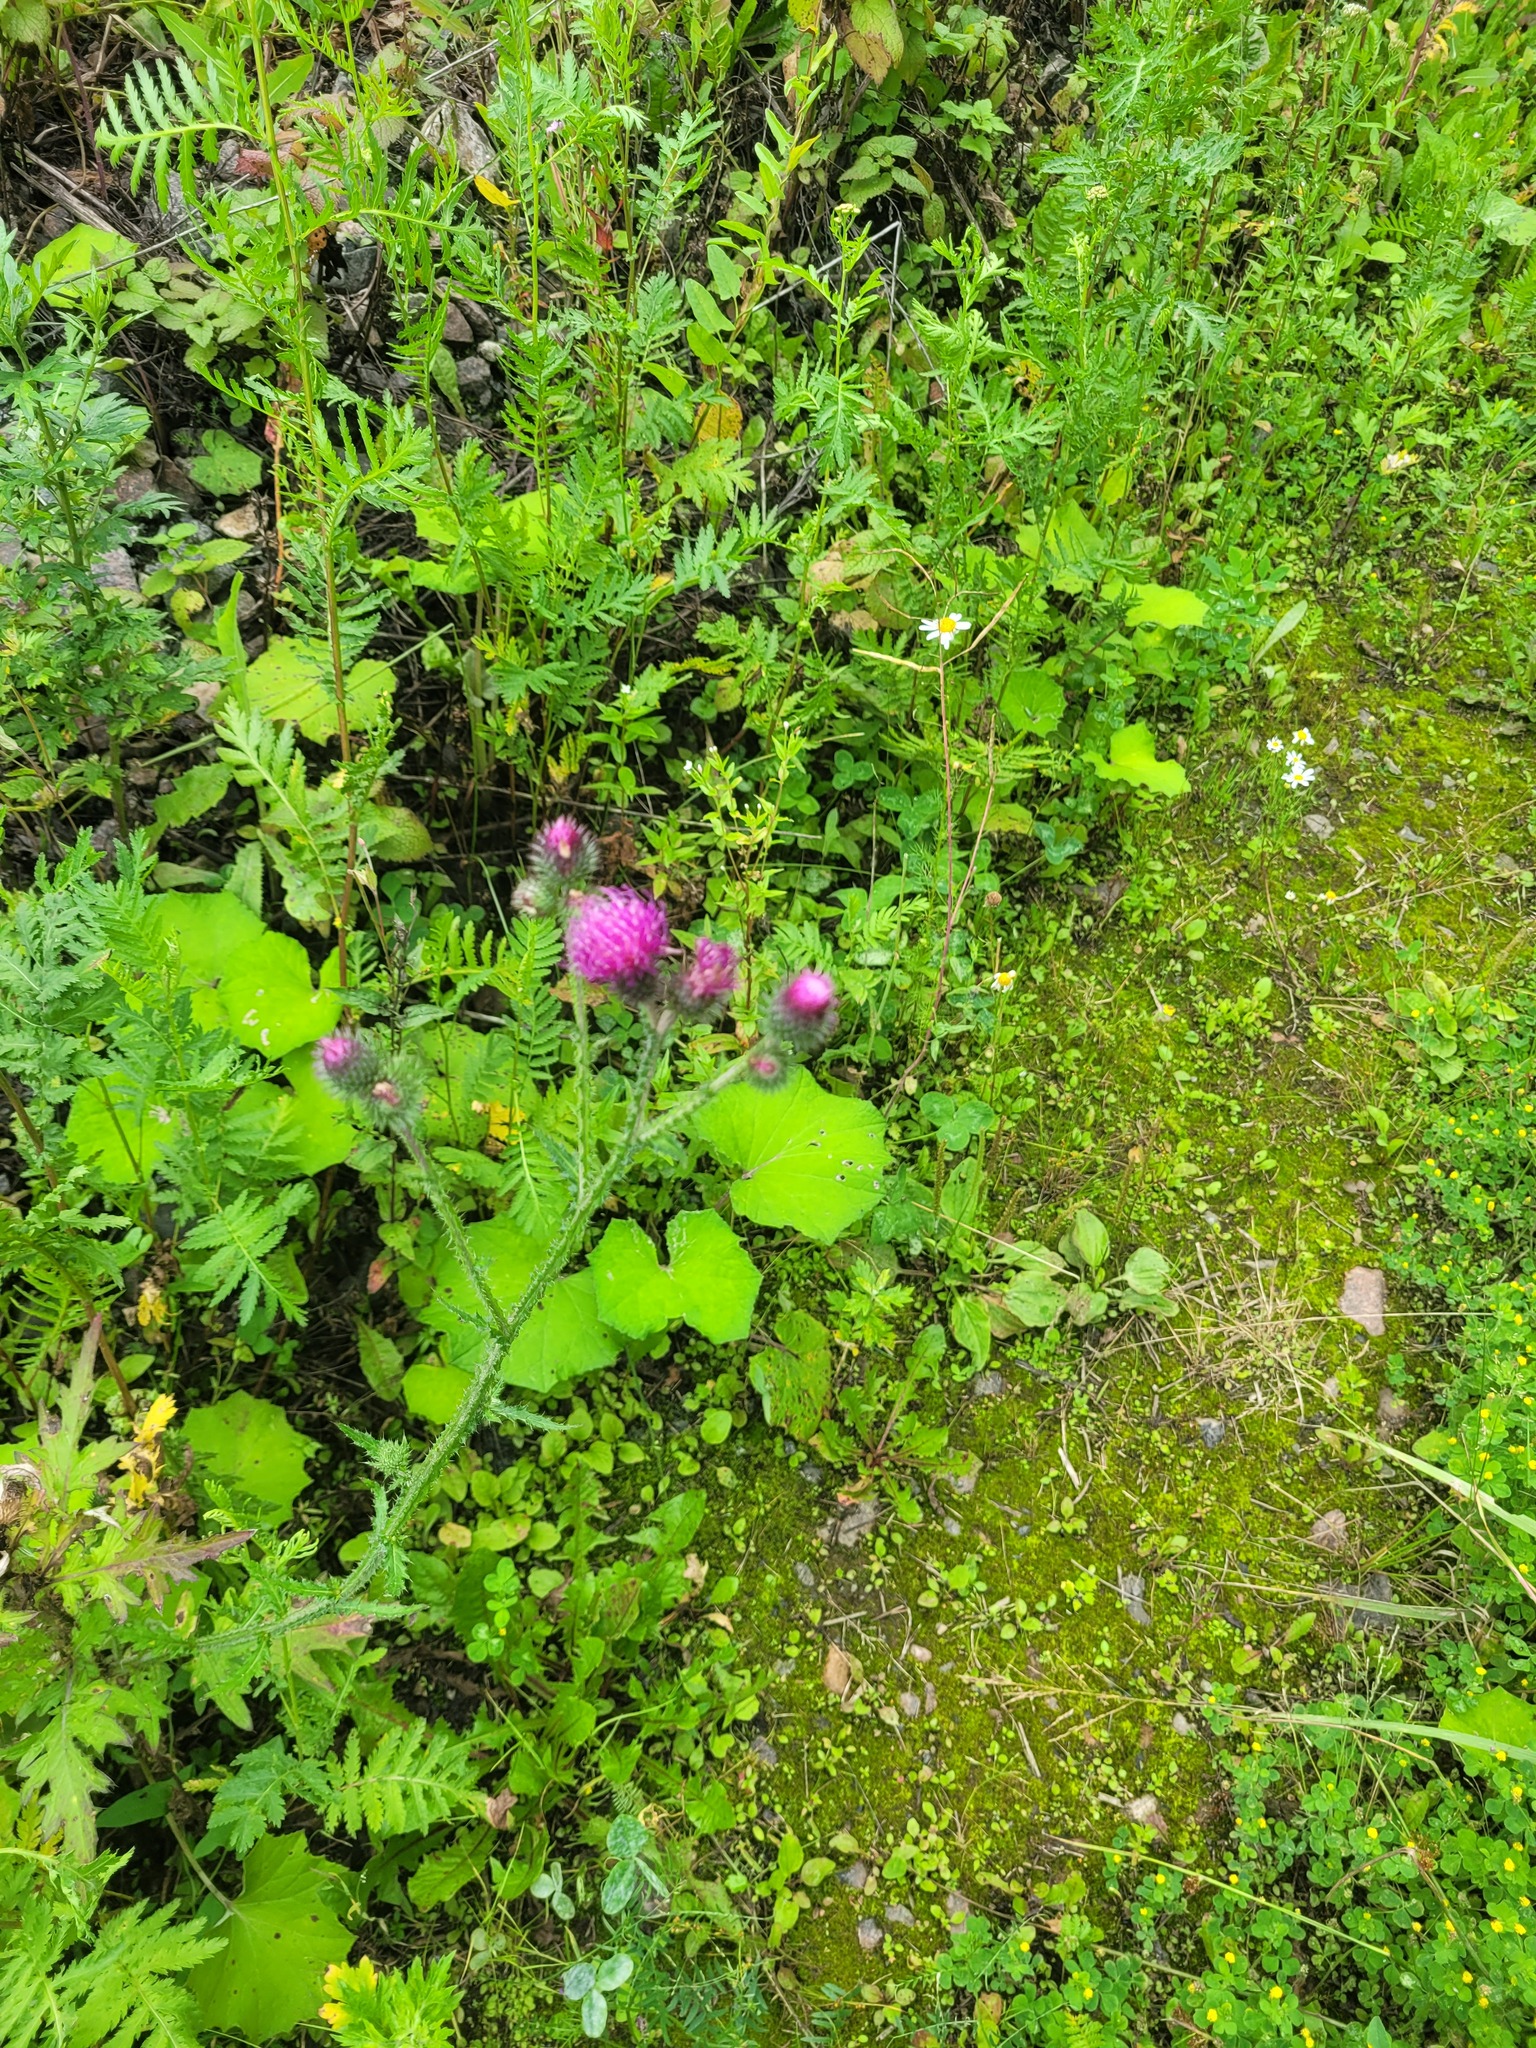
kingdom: Plantae
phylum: Tracheophyta
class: Magnoliopsida
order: Asterales
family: Asteraceae
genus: Carduus
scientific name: Carduus crispus
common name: Welted thistle
